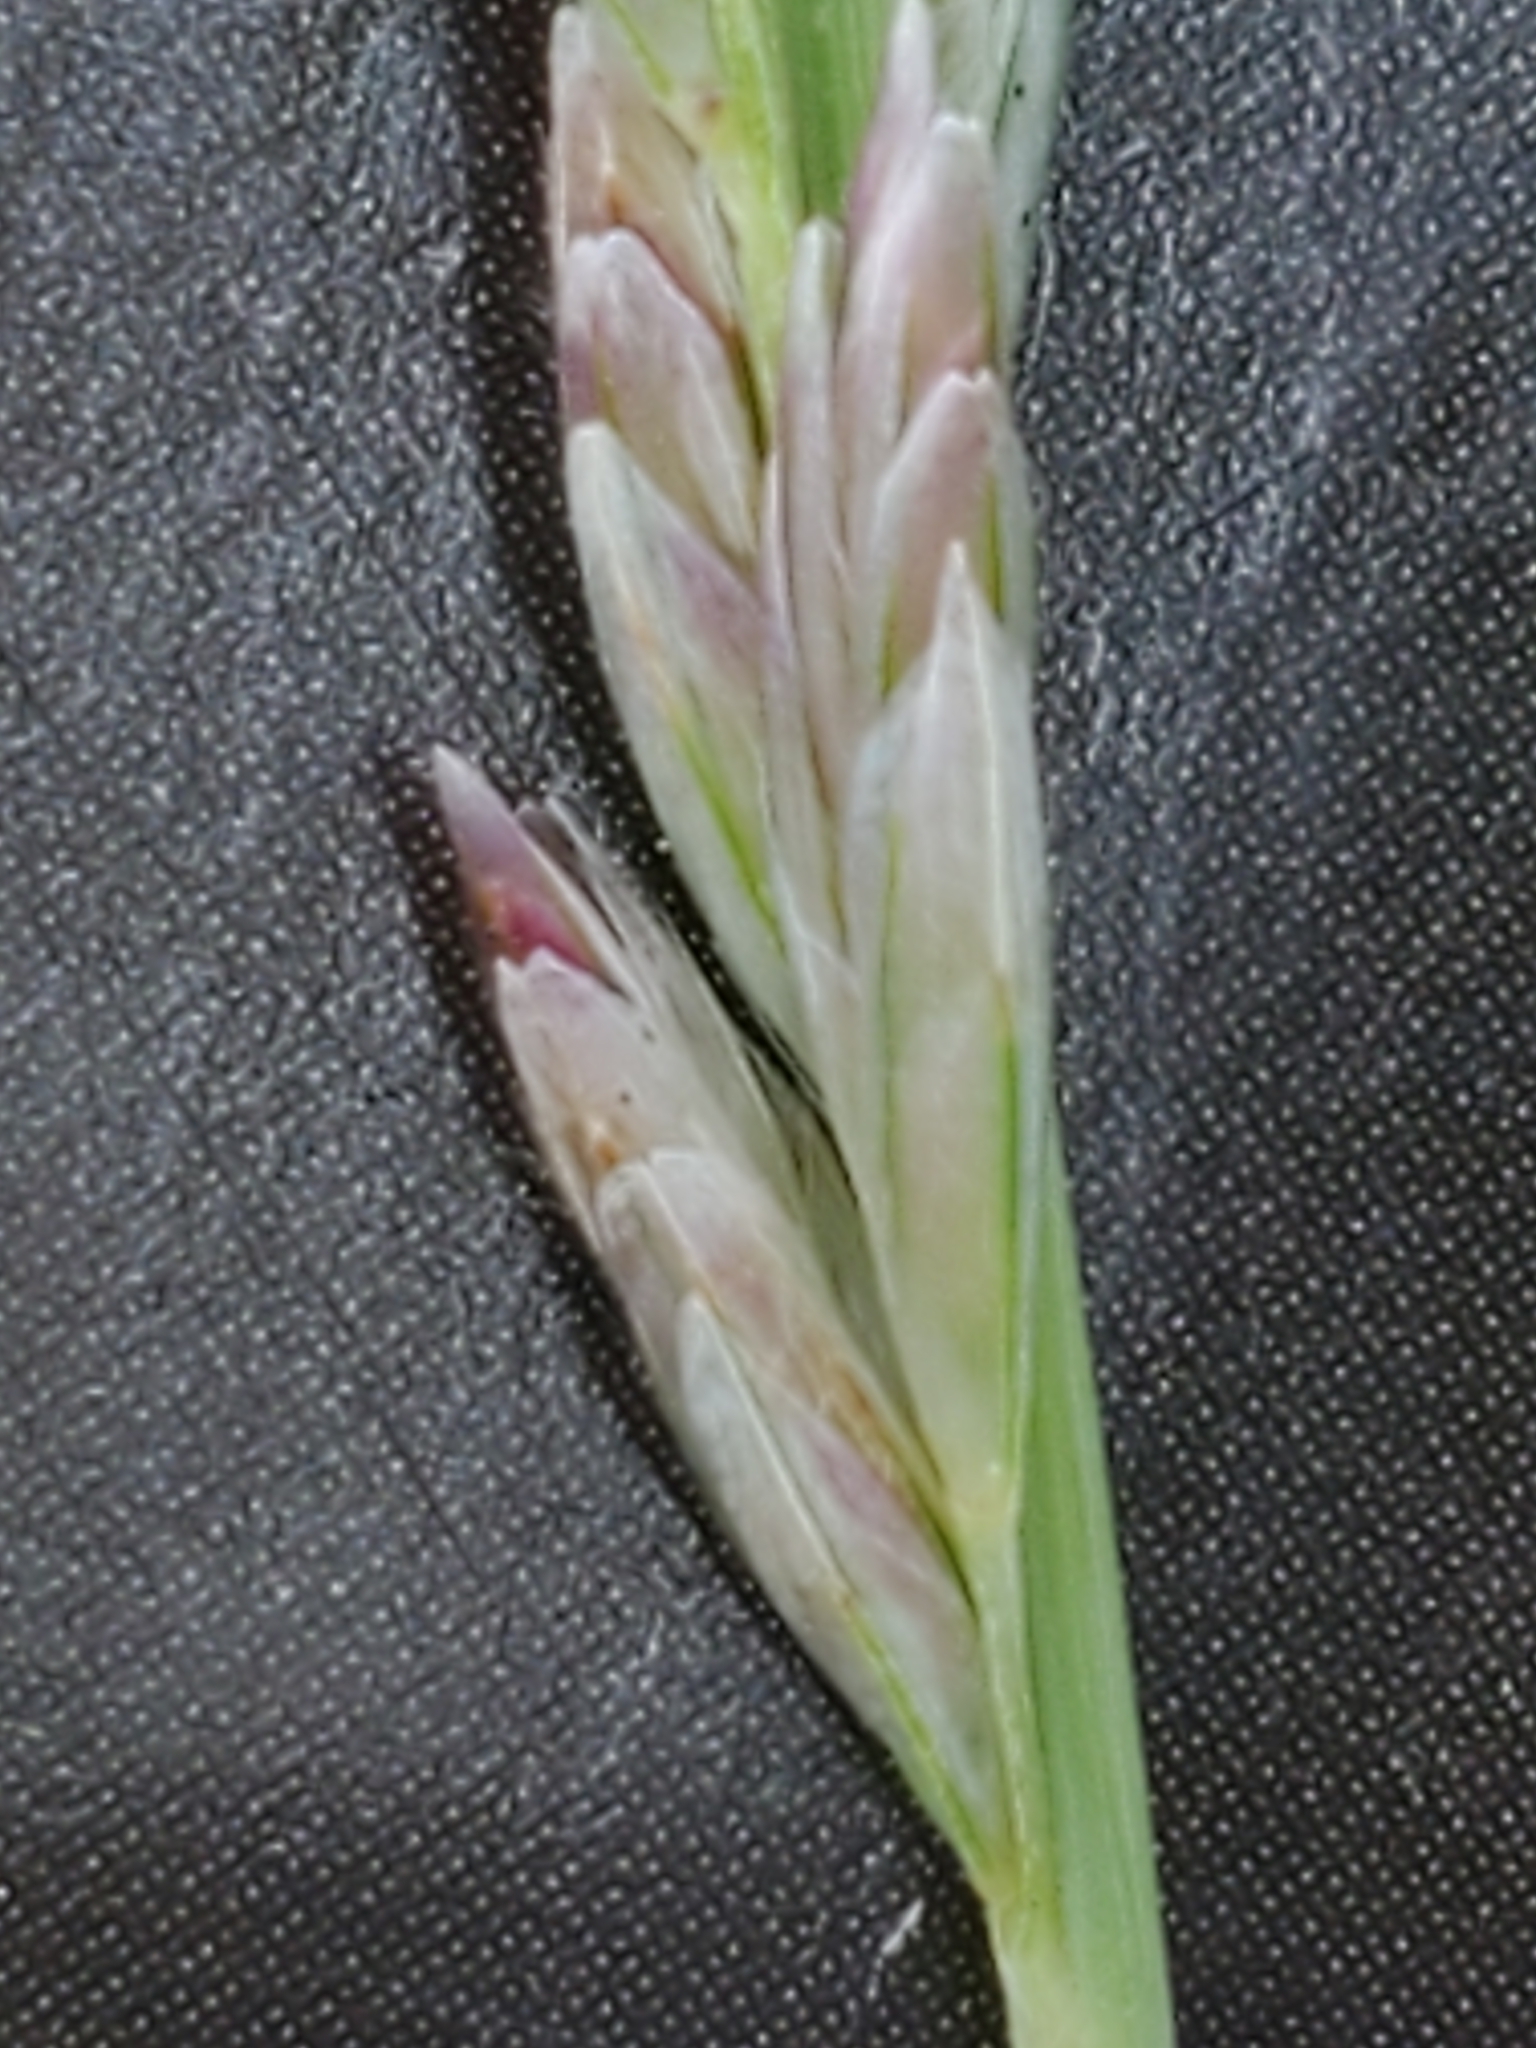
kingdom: Plantae
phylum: Tracheophyta
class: Liliopsida
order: Poales
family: Poaceae
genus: Tridentopsis
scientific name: Tridentopsis mutica
